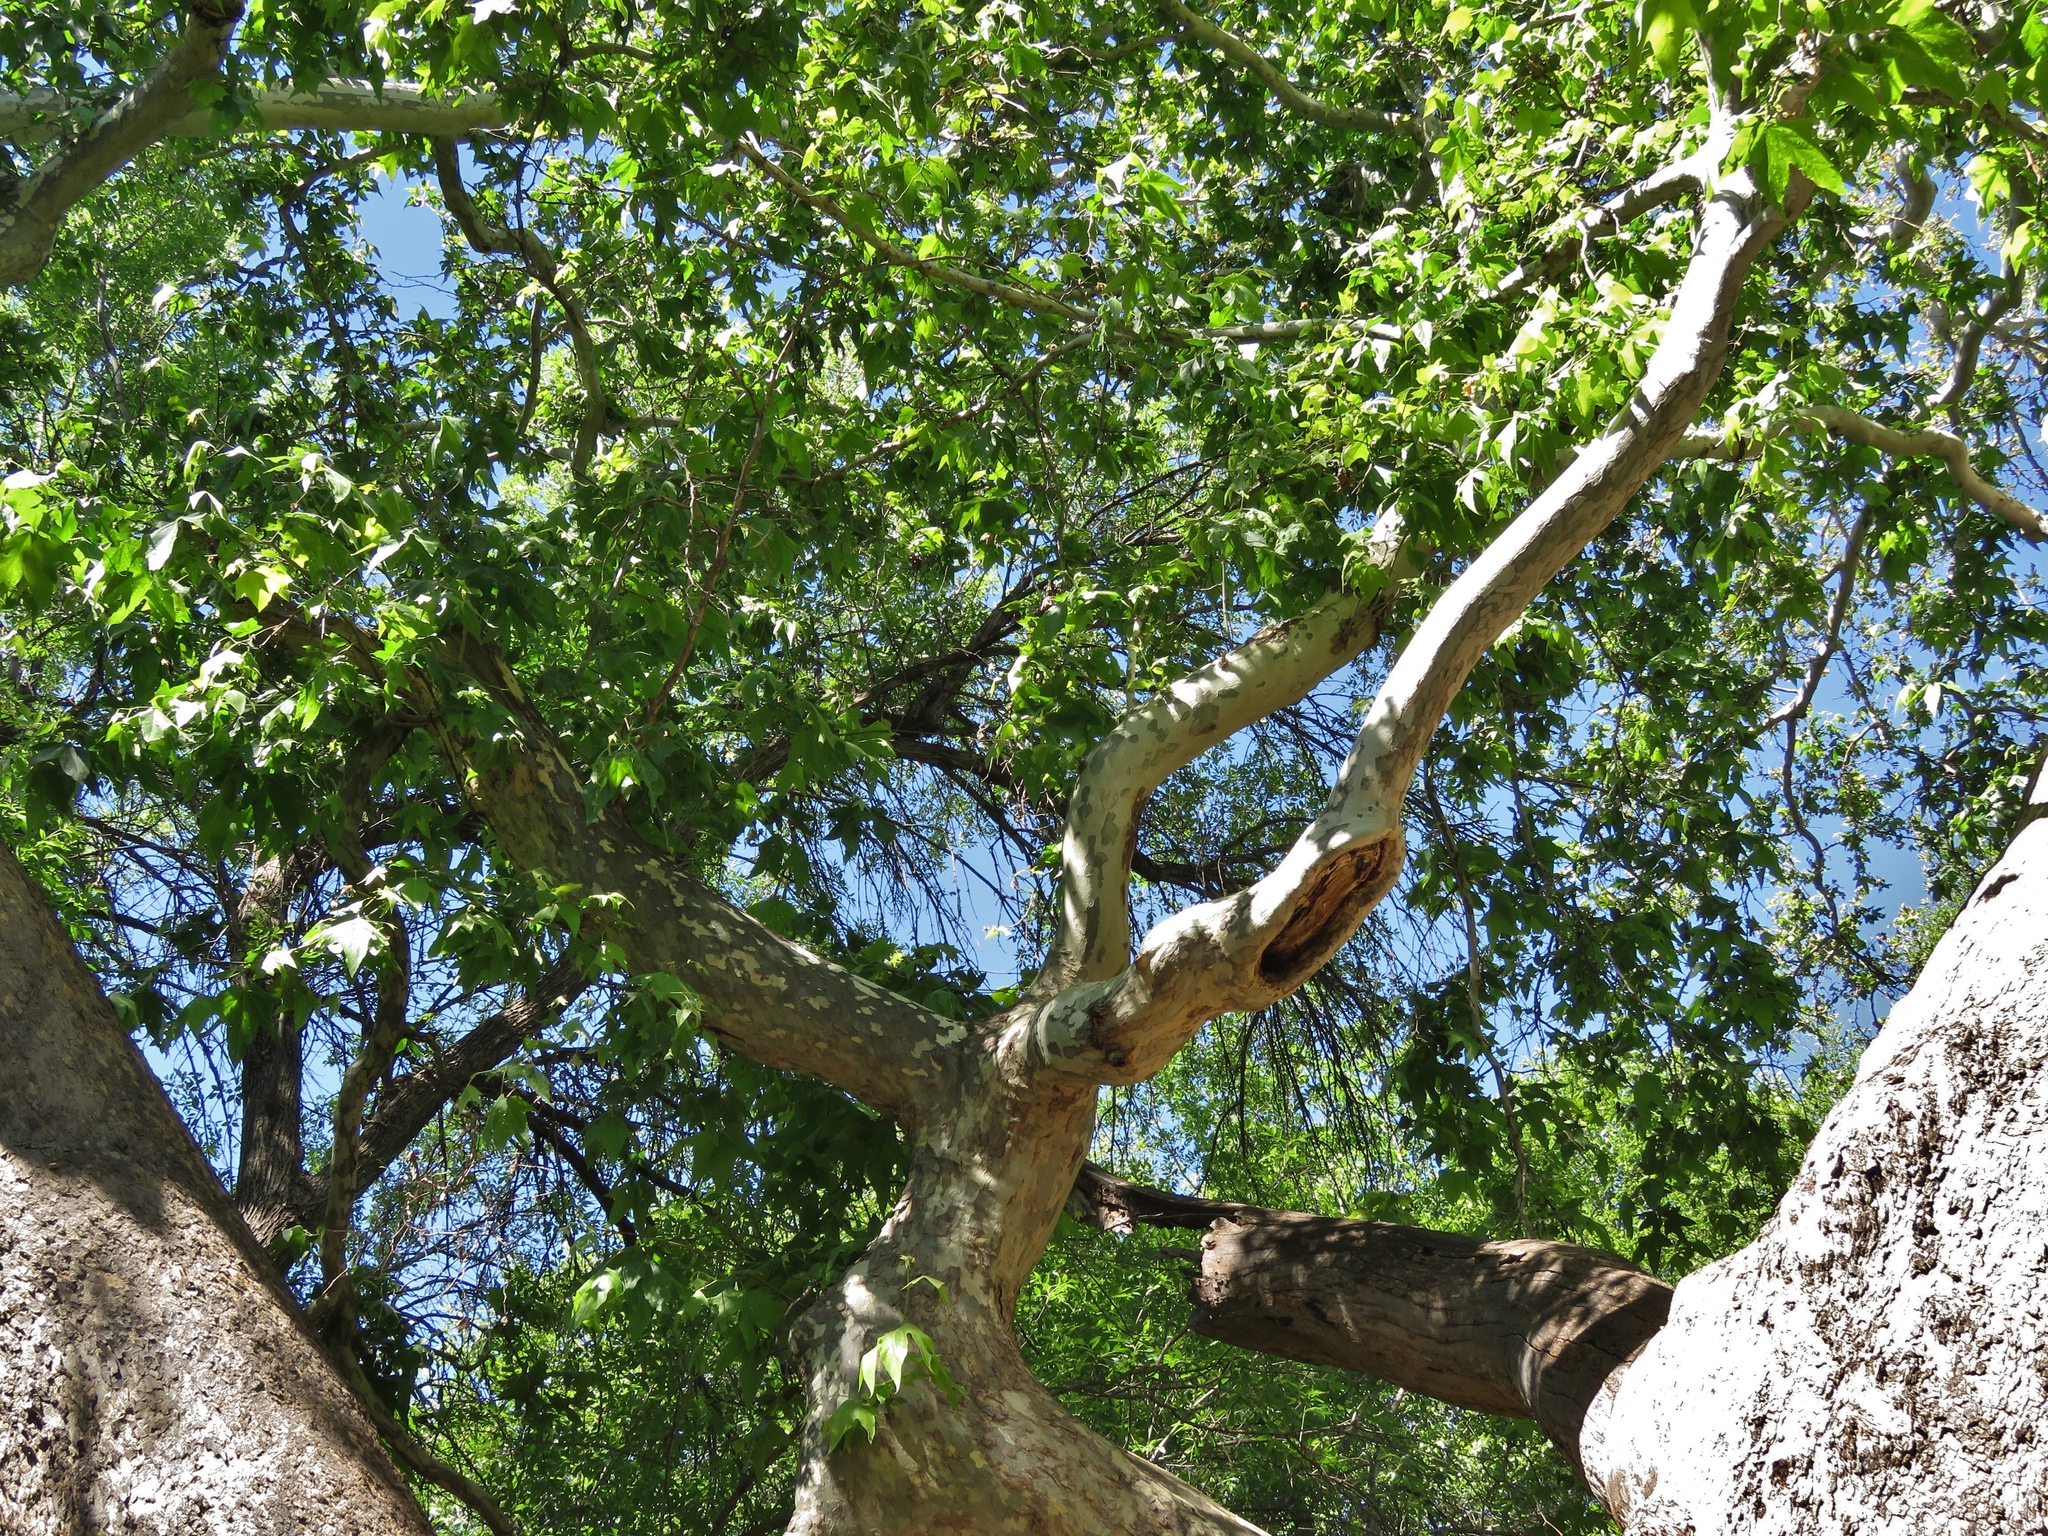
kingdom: Plantae
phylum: Tracheophyta
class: Magnoliopsida
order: Proteales
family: Platanaceae
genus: Platanus
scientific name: Platanus wrightii
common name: Arizona sycamore
